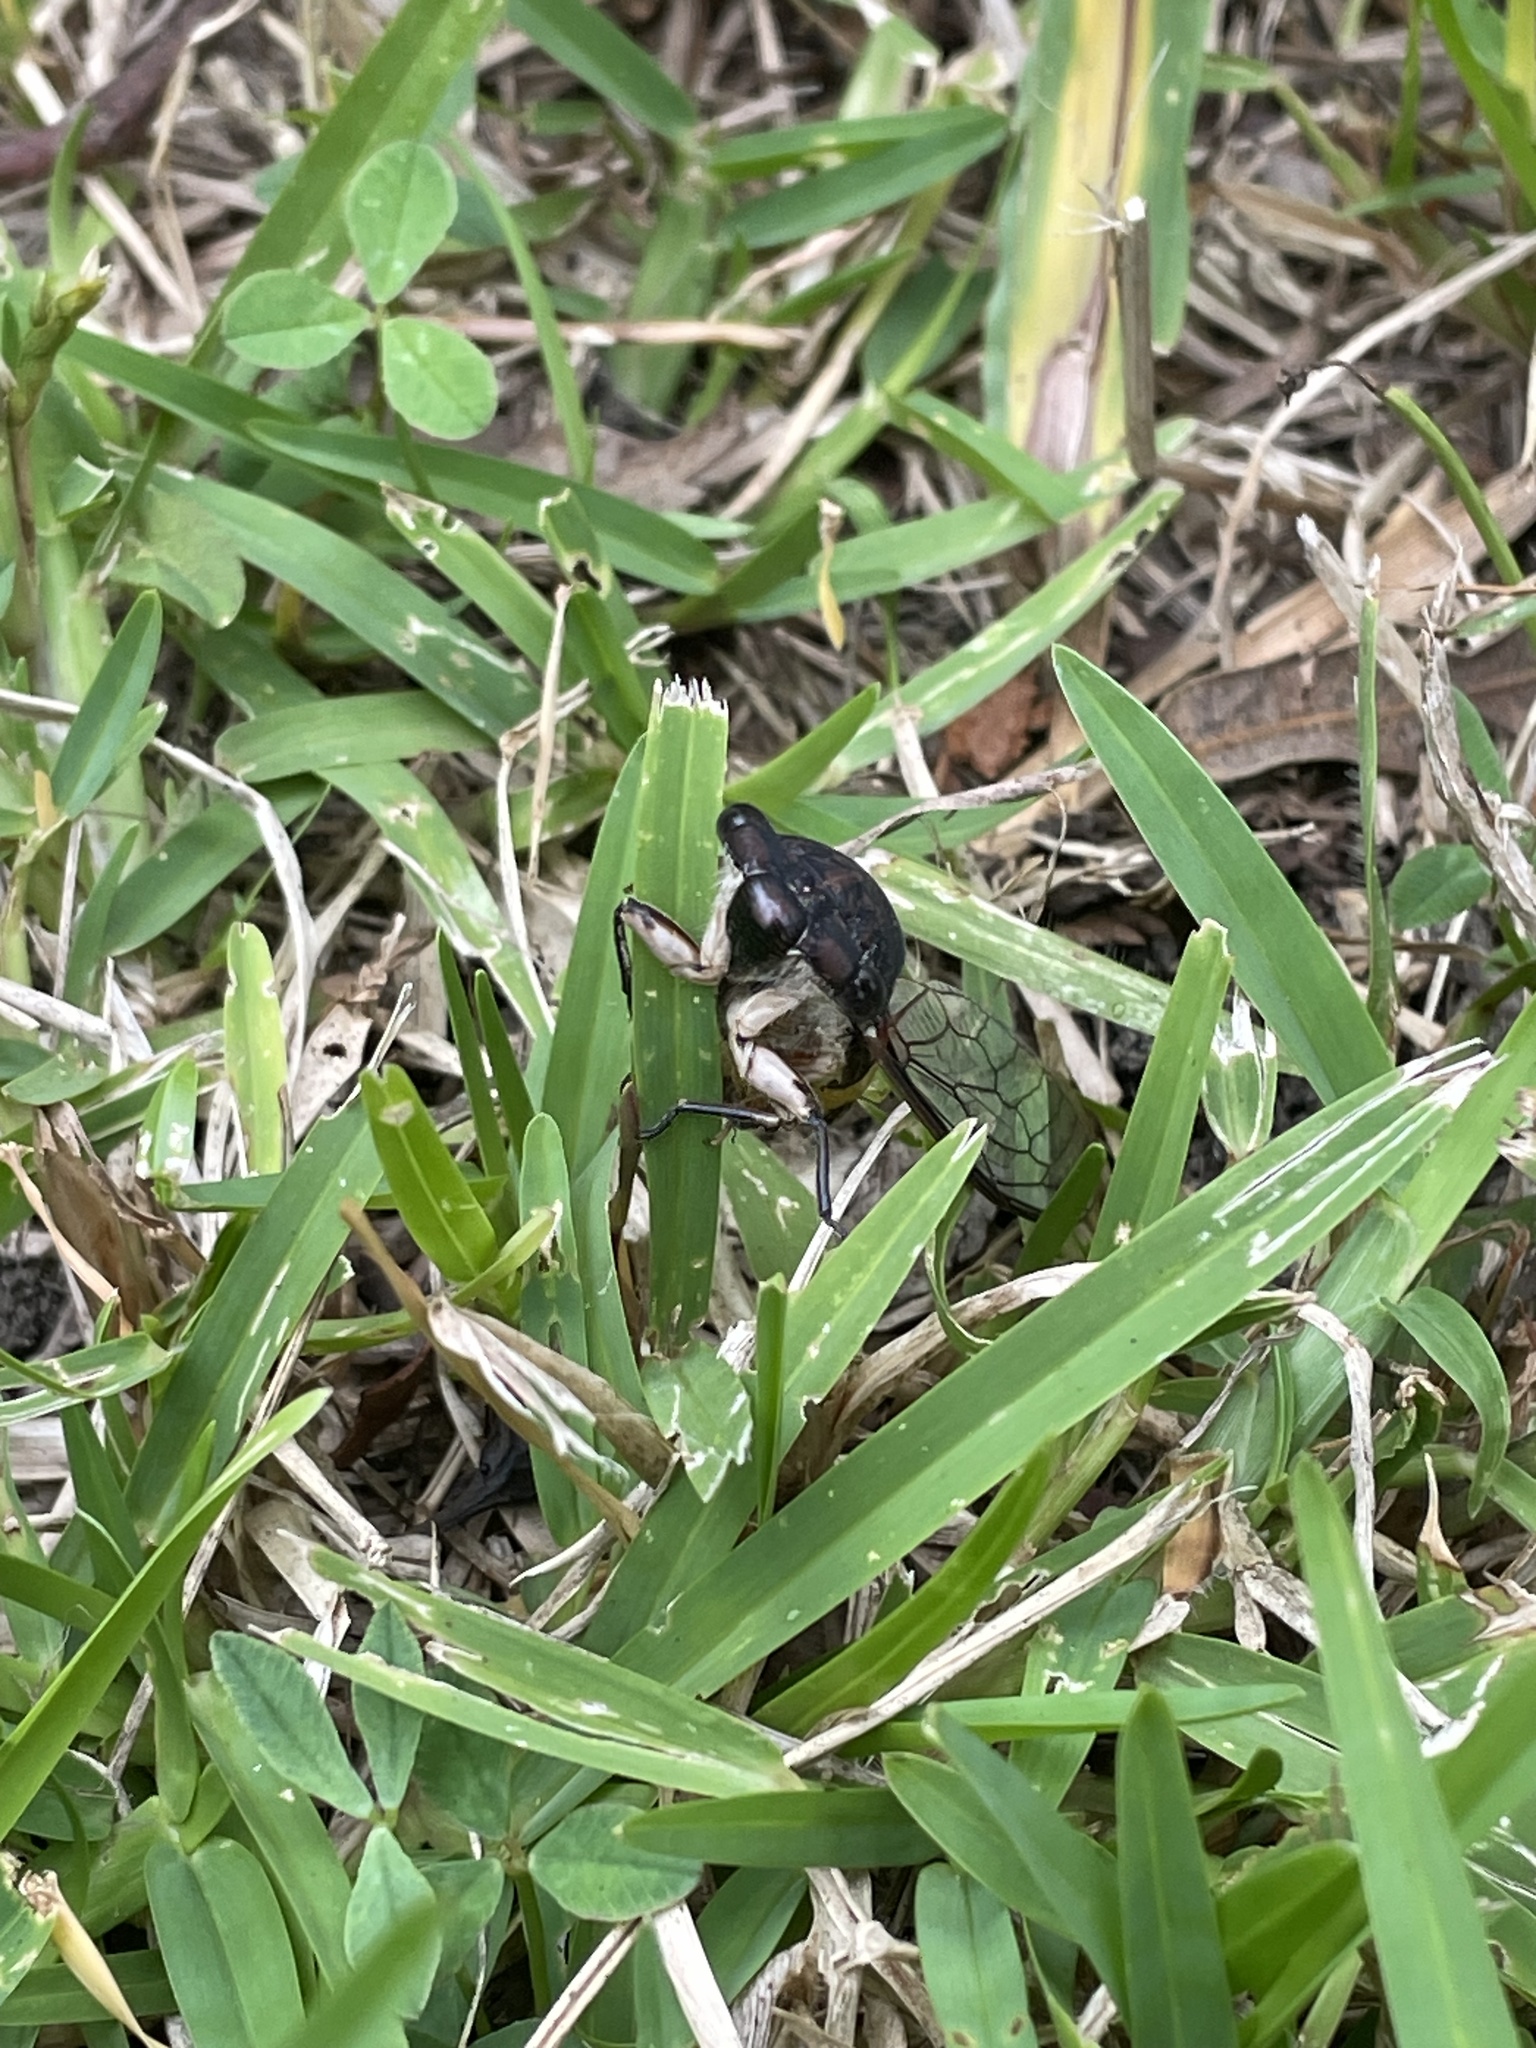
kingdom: Animalia
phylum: Arthropoda
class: Insecta
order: Hemiptera
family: Cicadidae
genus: Psaltoda
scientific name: Psaltoda harrisii
